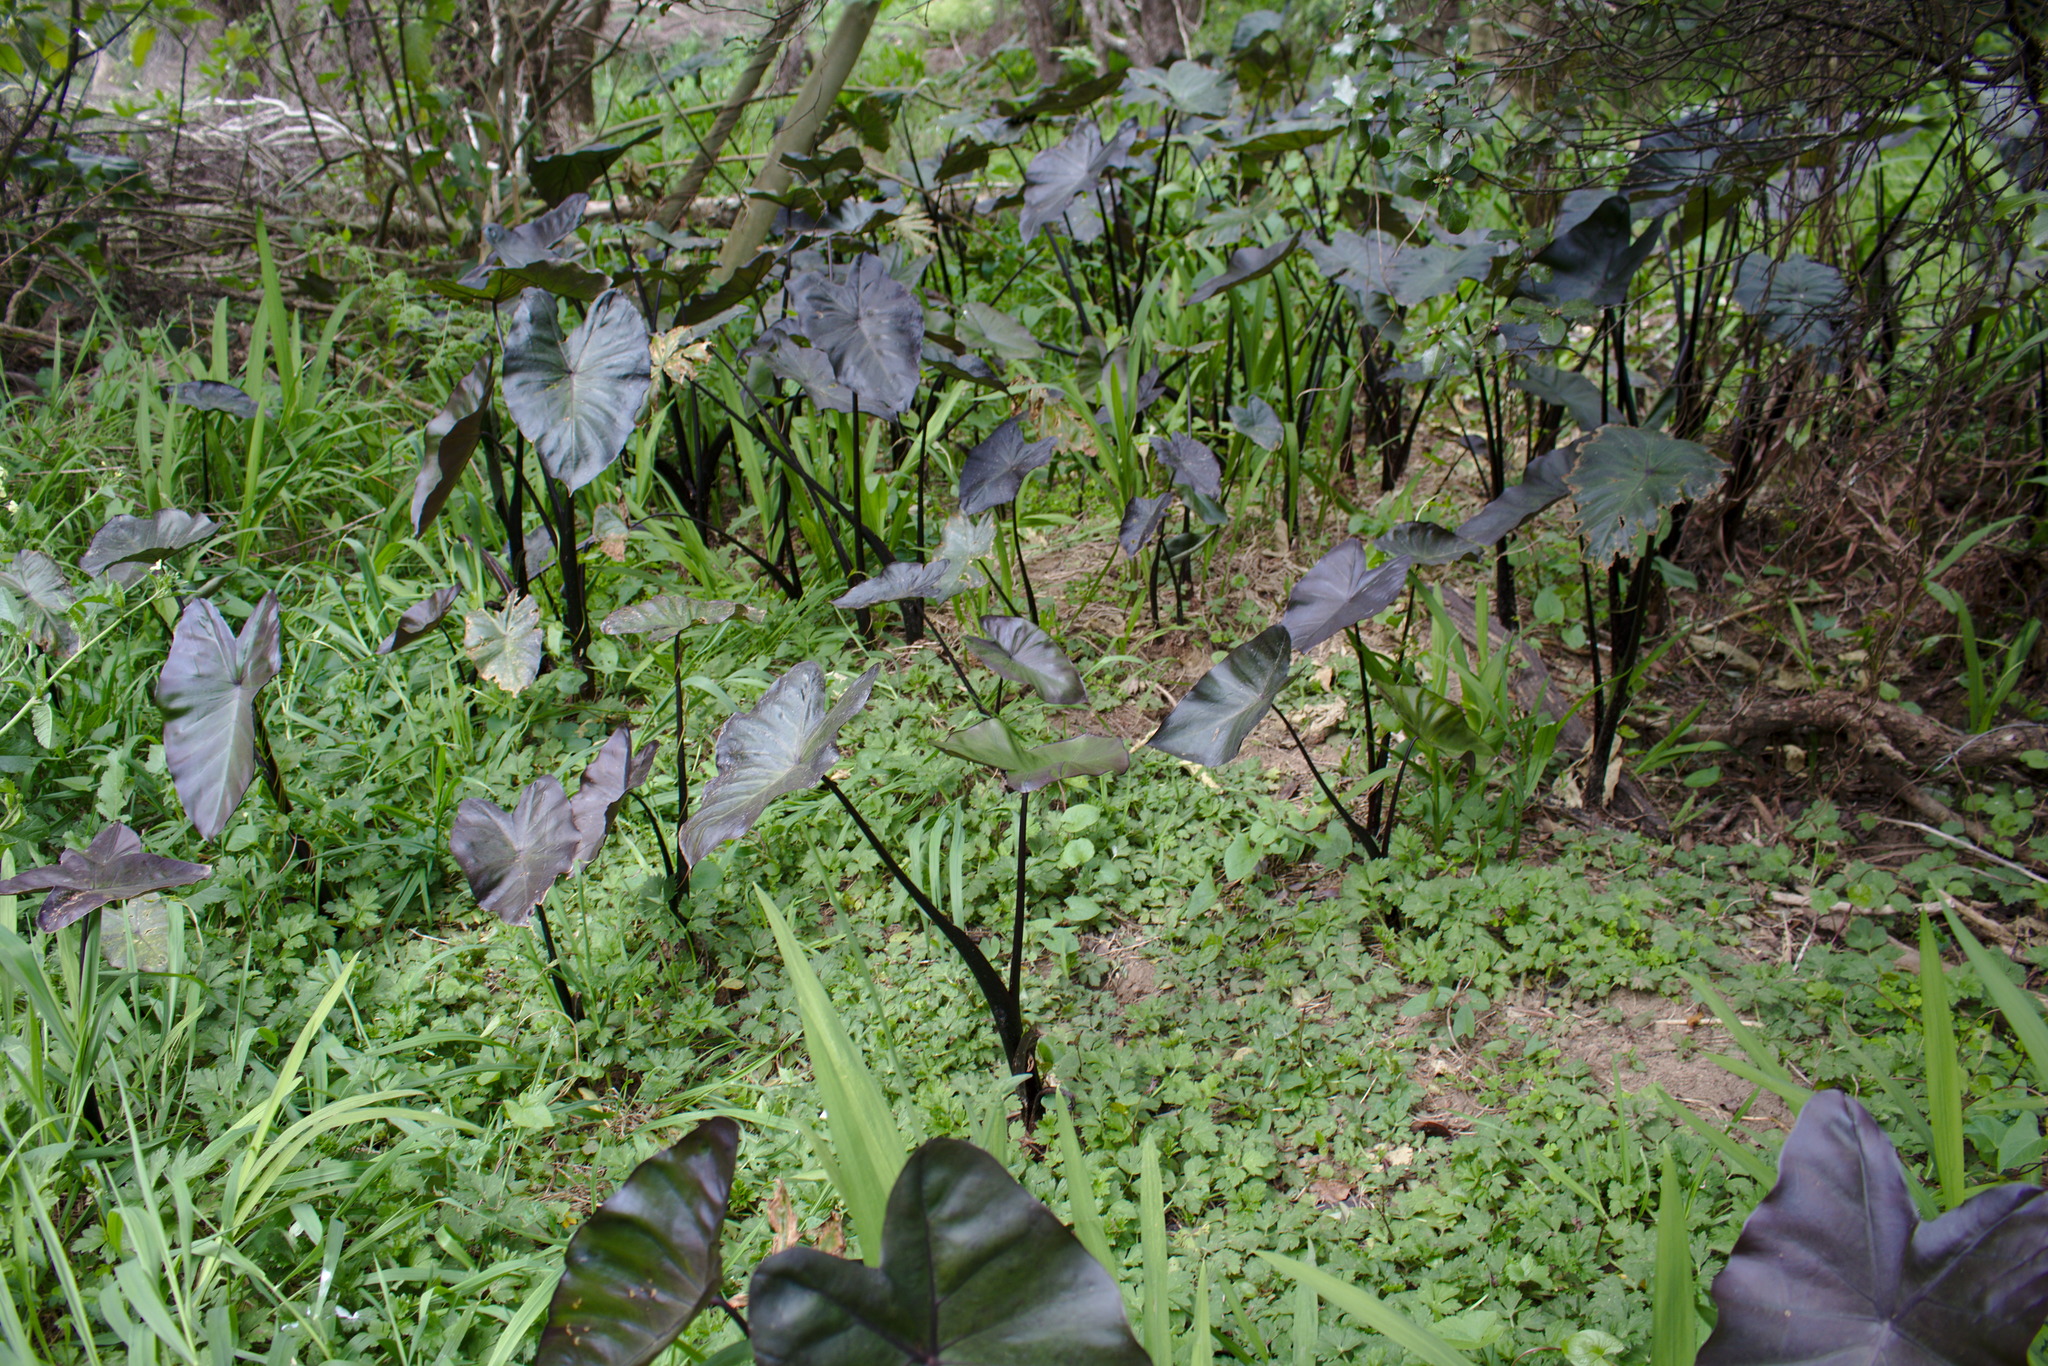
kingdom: Plantae
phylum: Tracheophyta
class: Liliopsida
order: Alismatales
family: Araceae
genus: Colocasia
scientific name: Colocasia esculenta
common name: Taro
